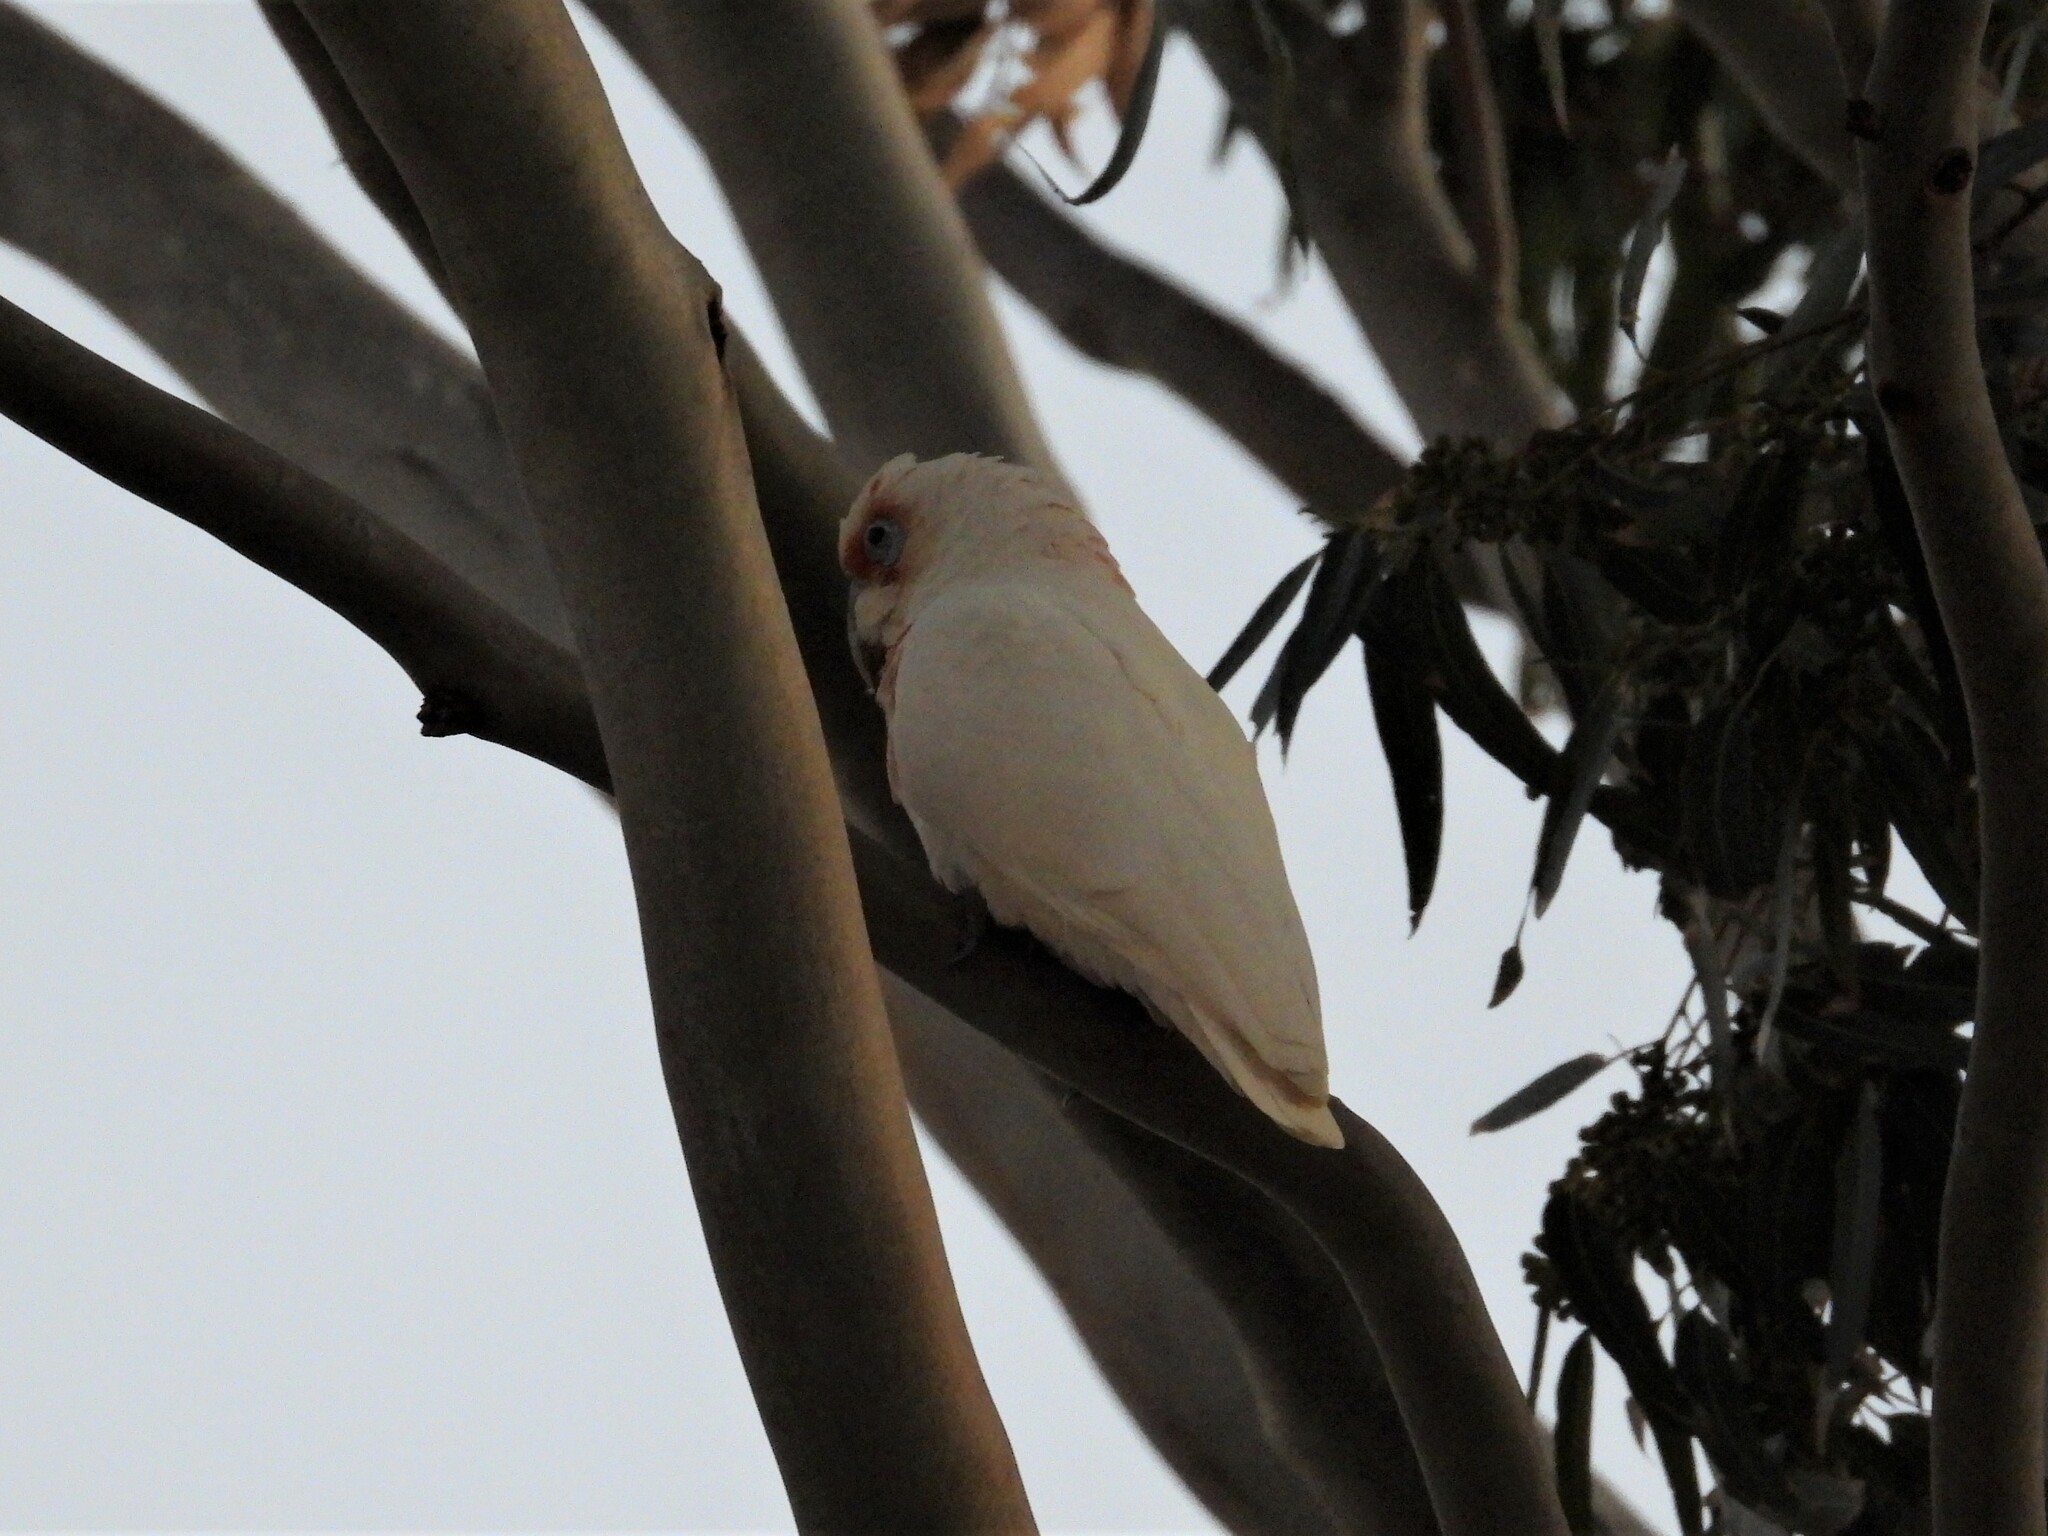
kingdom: Animalia
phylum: Chordata
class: Aves
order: Psittaciformes
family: Psittacidae
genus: Cacatua
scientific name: Cacatua tenuirostris
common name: Long-billed corella
